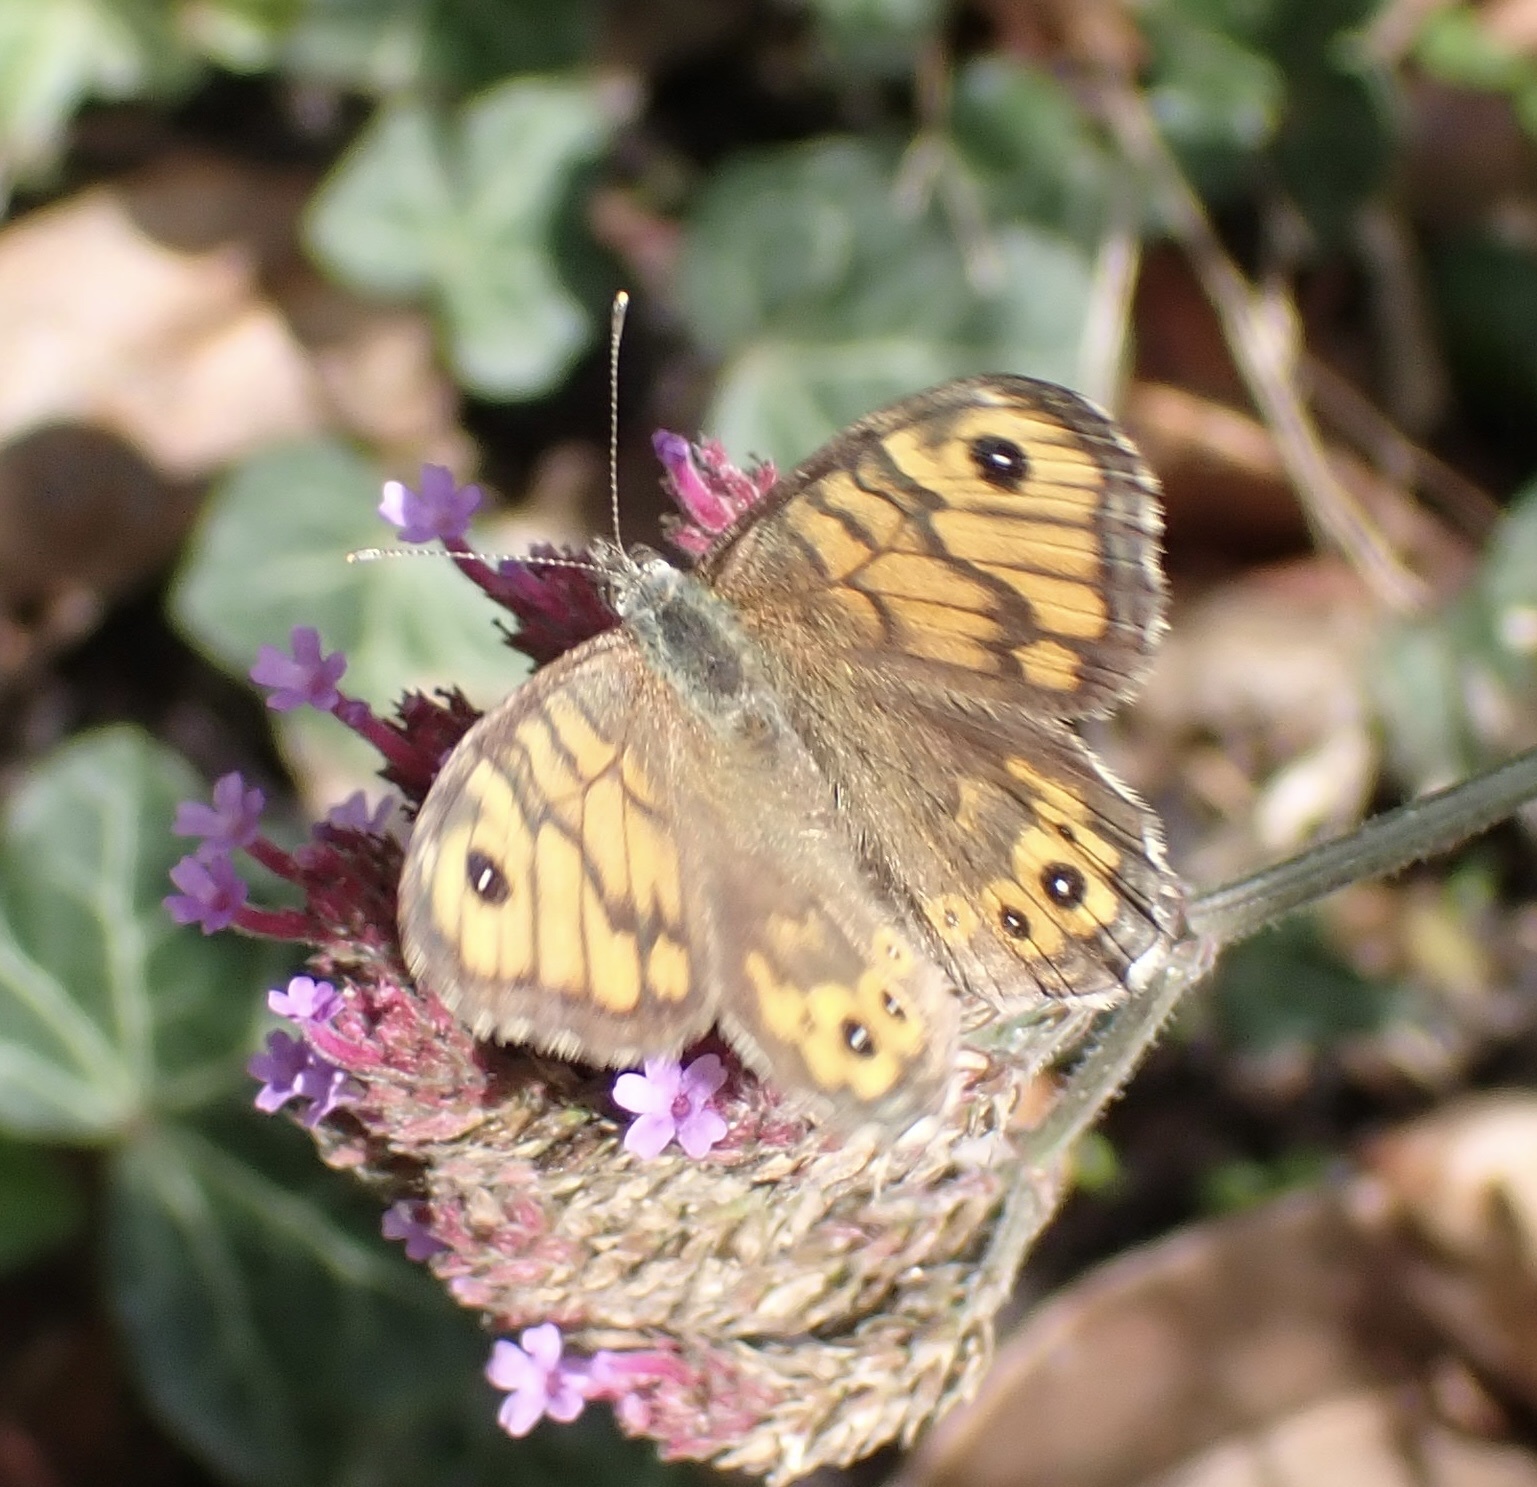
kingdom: Animalia
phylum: Arthropoda
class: Insecta
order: Lepidoptera
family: Nymphalidae
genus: Pararge
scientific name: Pararge Lasiommata megera
